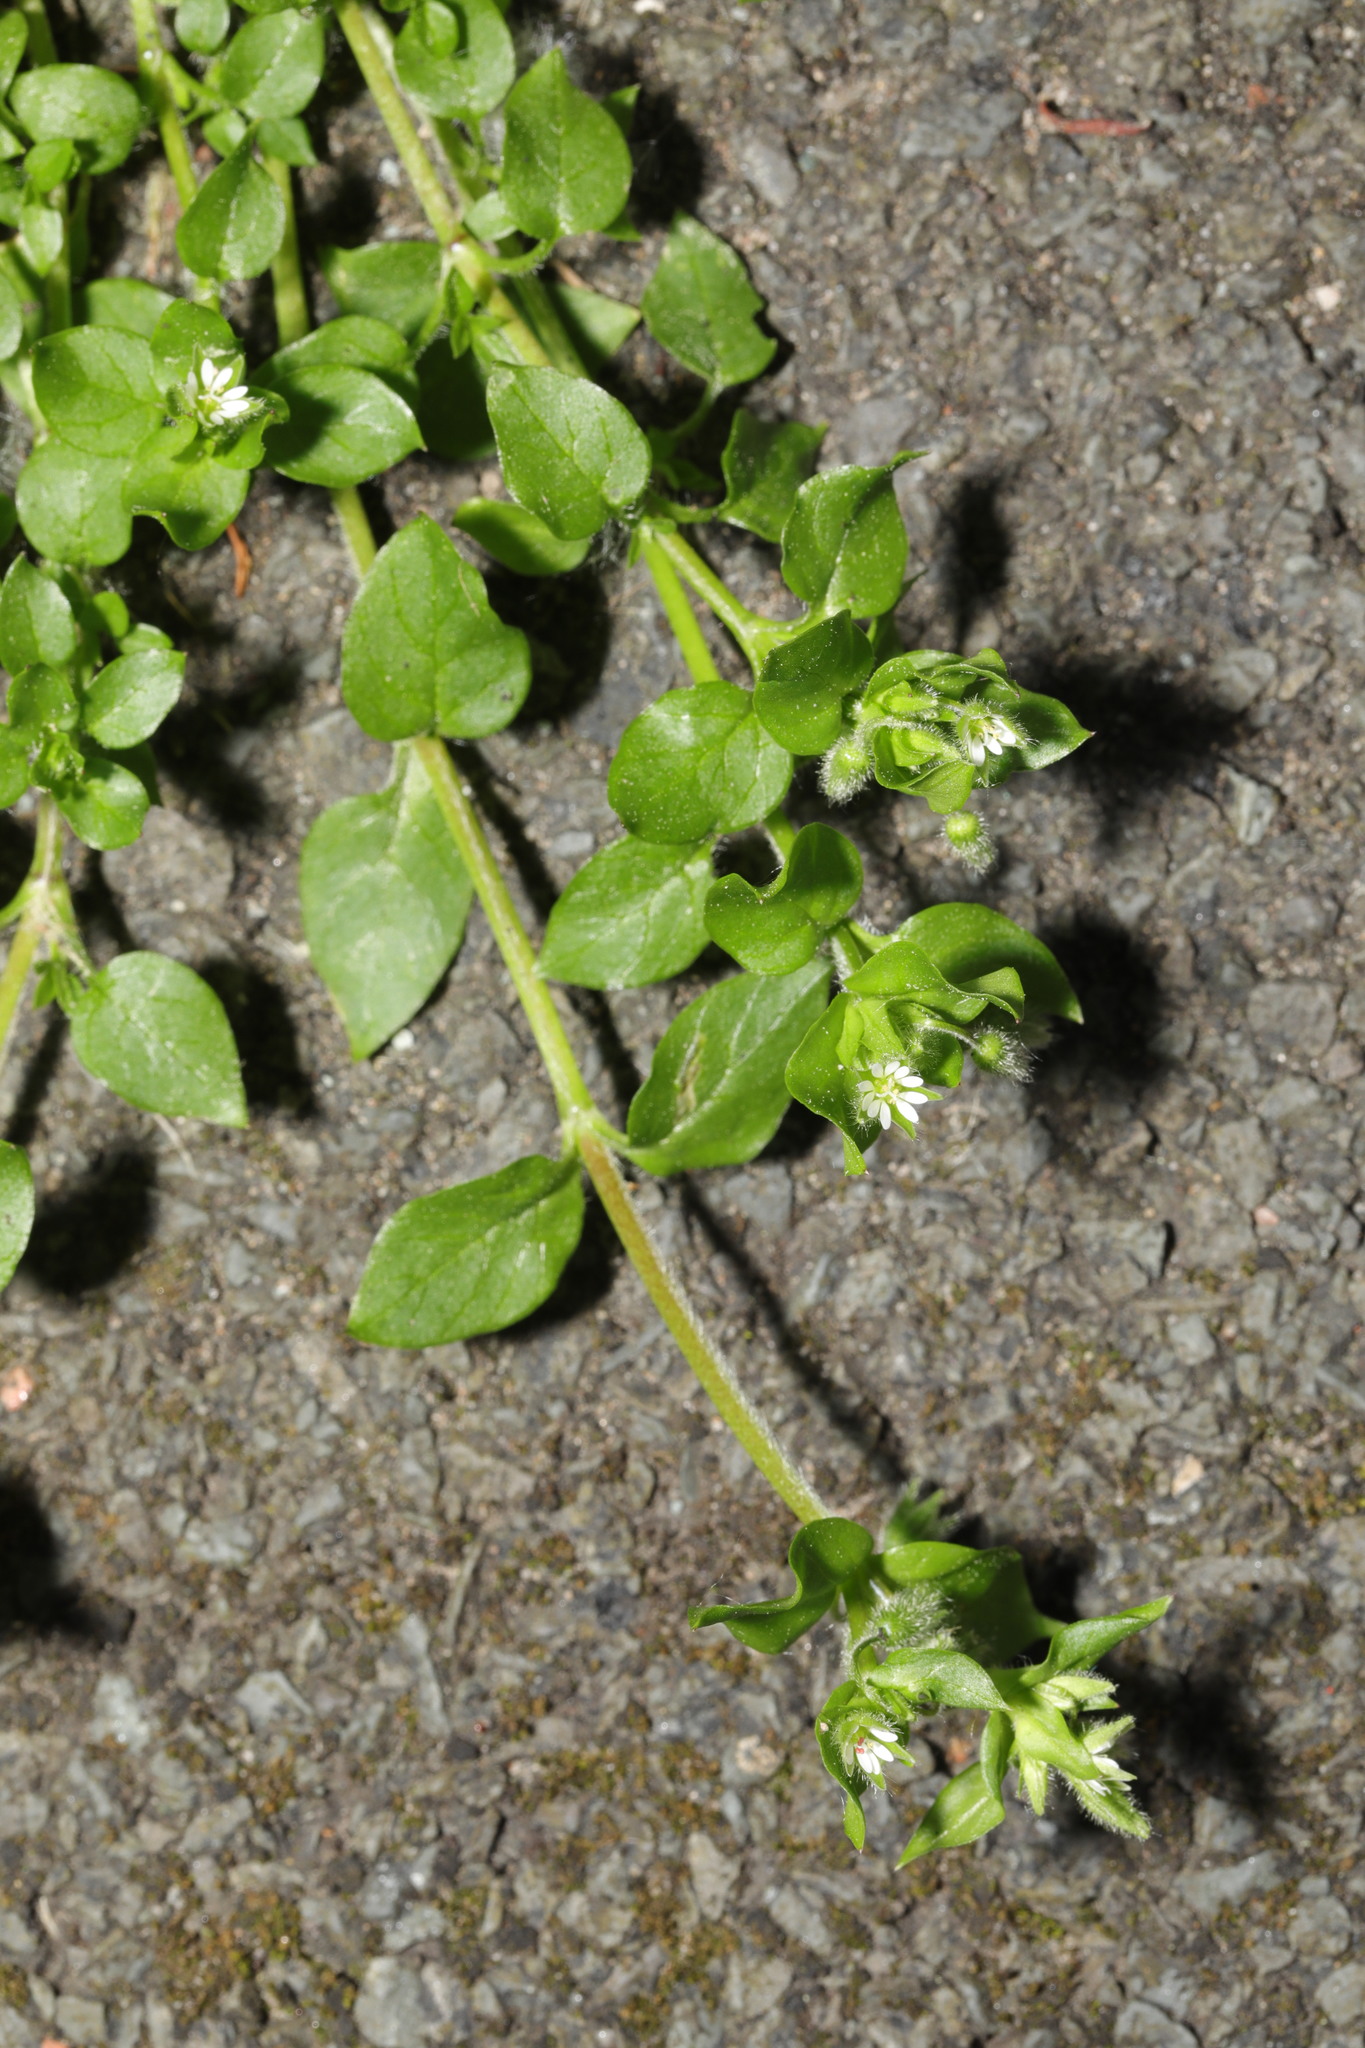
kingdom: Plantae
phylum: Tracheophyta
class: Magnoliopsida
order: Caryophyllales
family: Caryophyllaceae
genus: Stellaria
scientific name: Stellaria media
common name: Common chickweed
